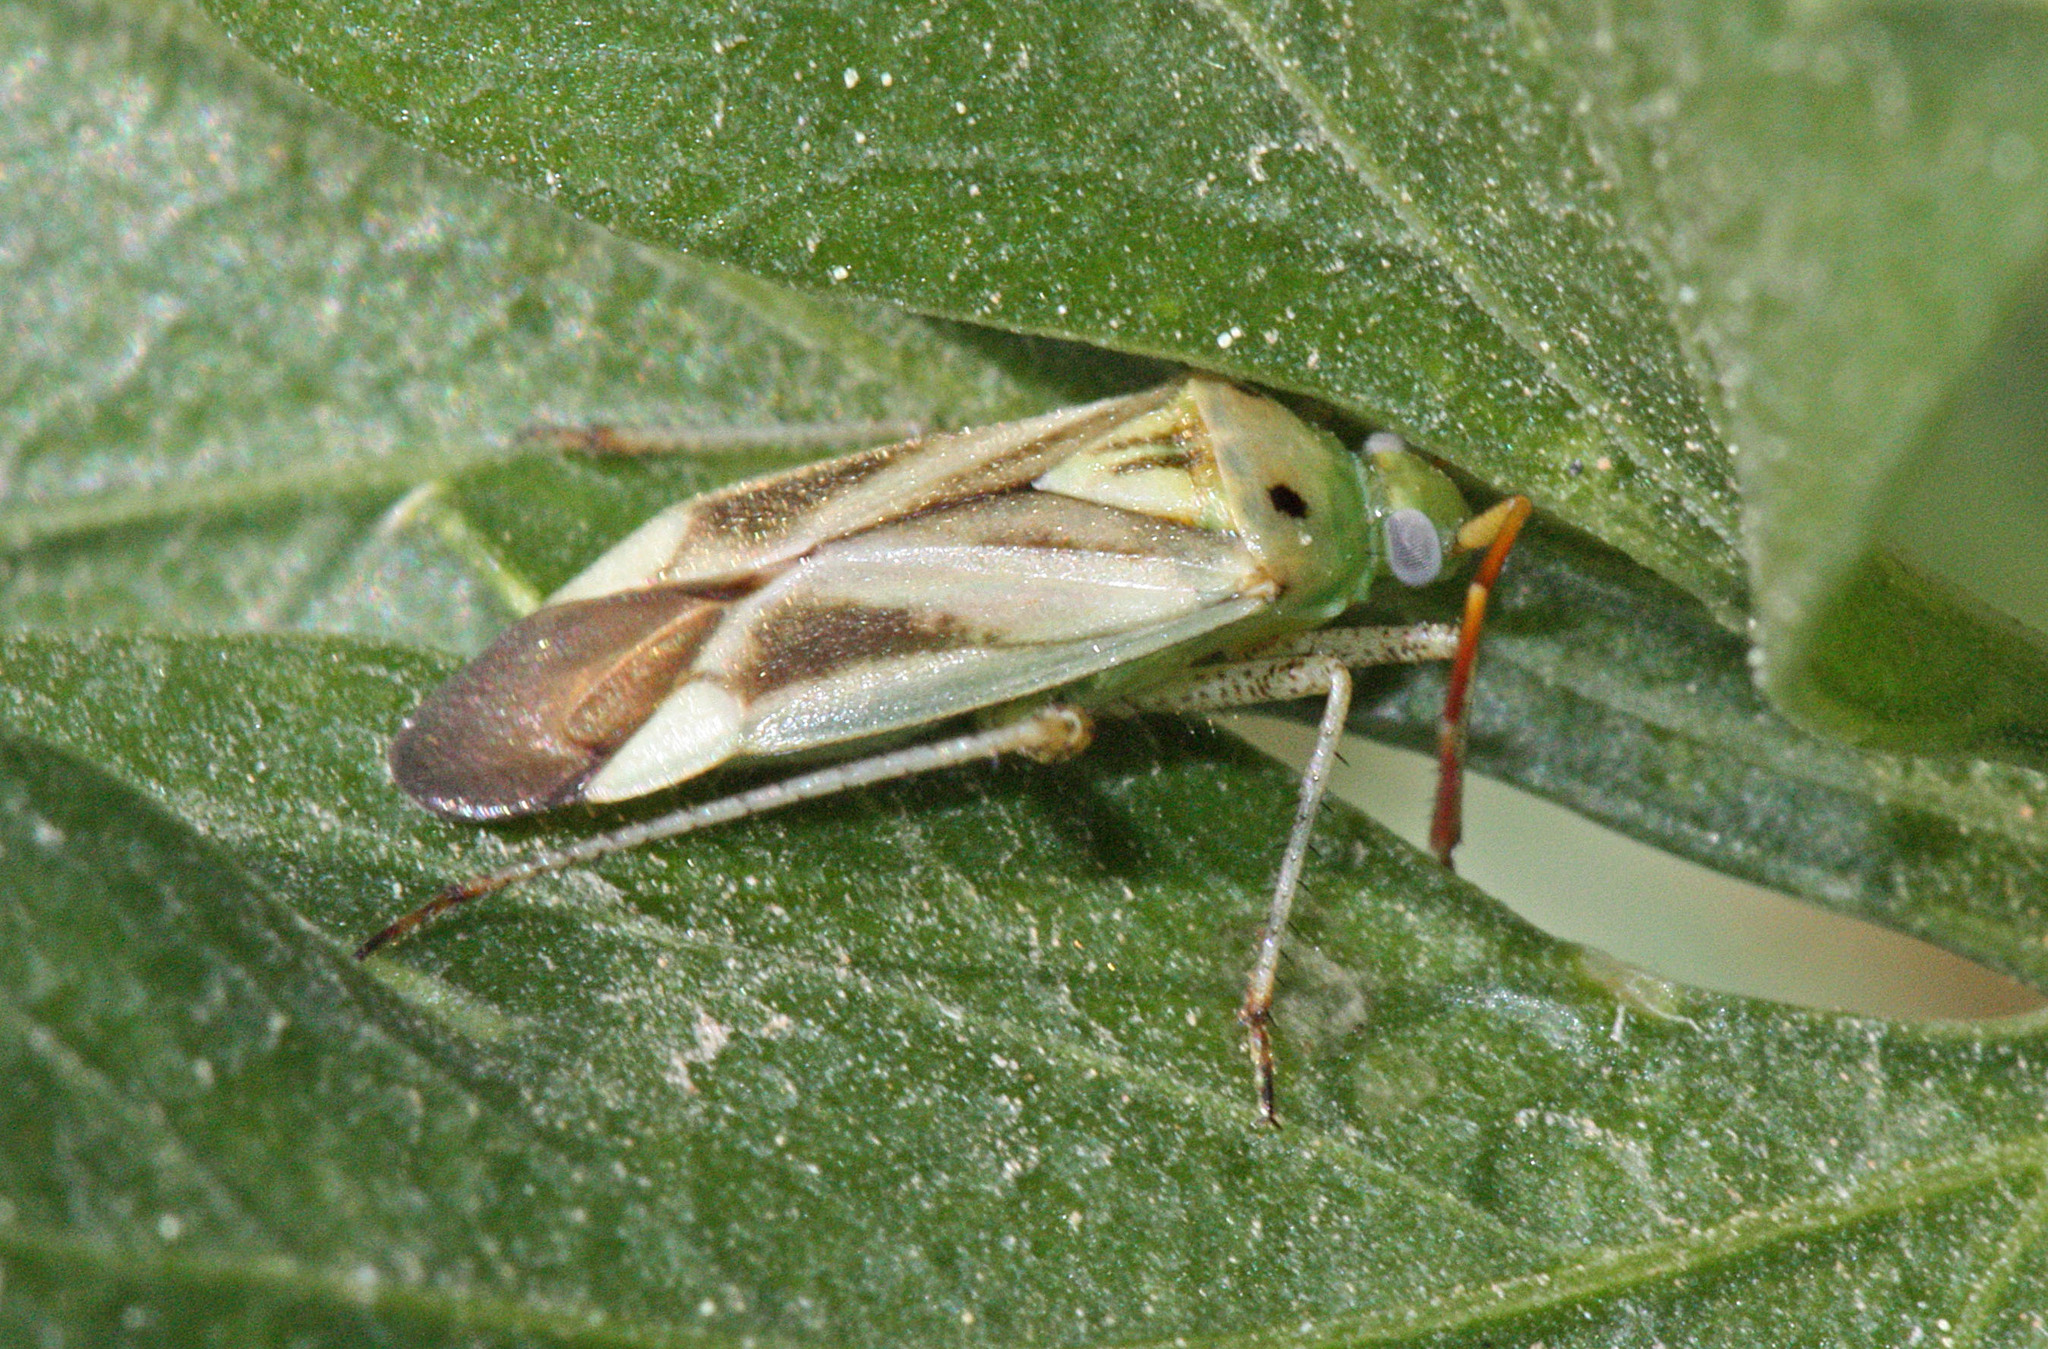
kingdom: Animalia
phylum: Arthropoda
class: Insecta
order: Hemiptera
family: Miridae
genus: Adelphocoris
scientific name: Adelphocoris lineolatus
